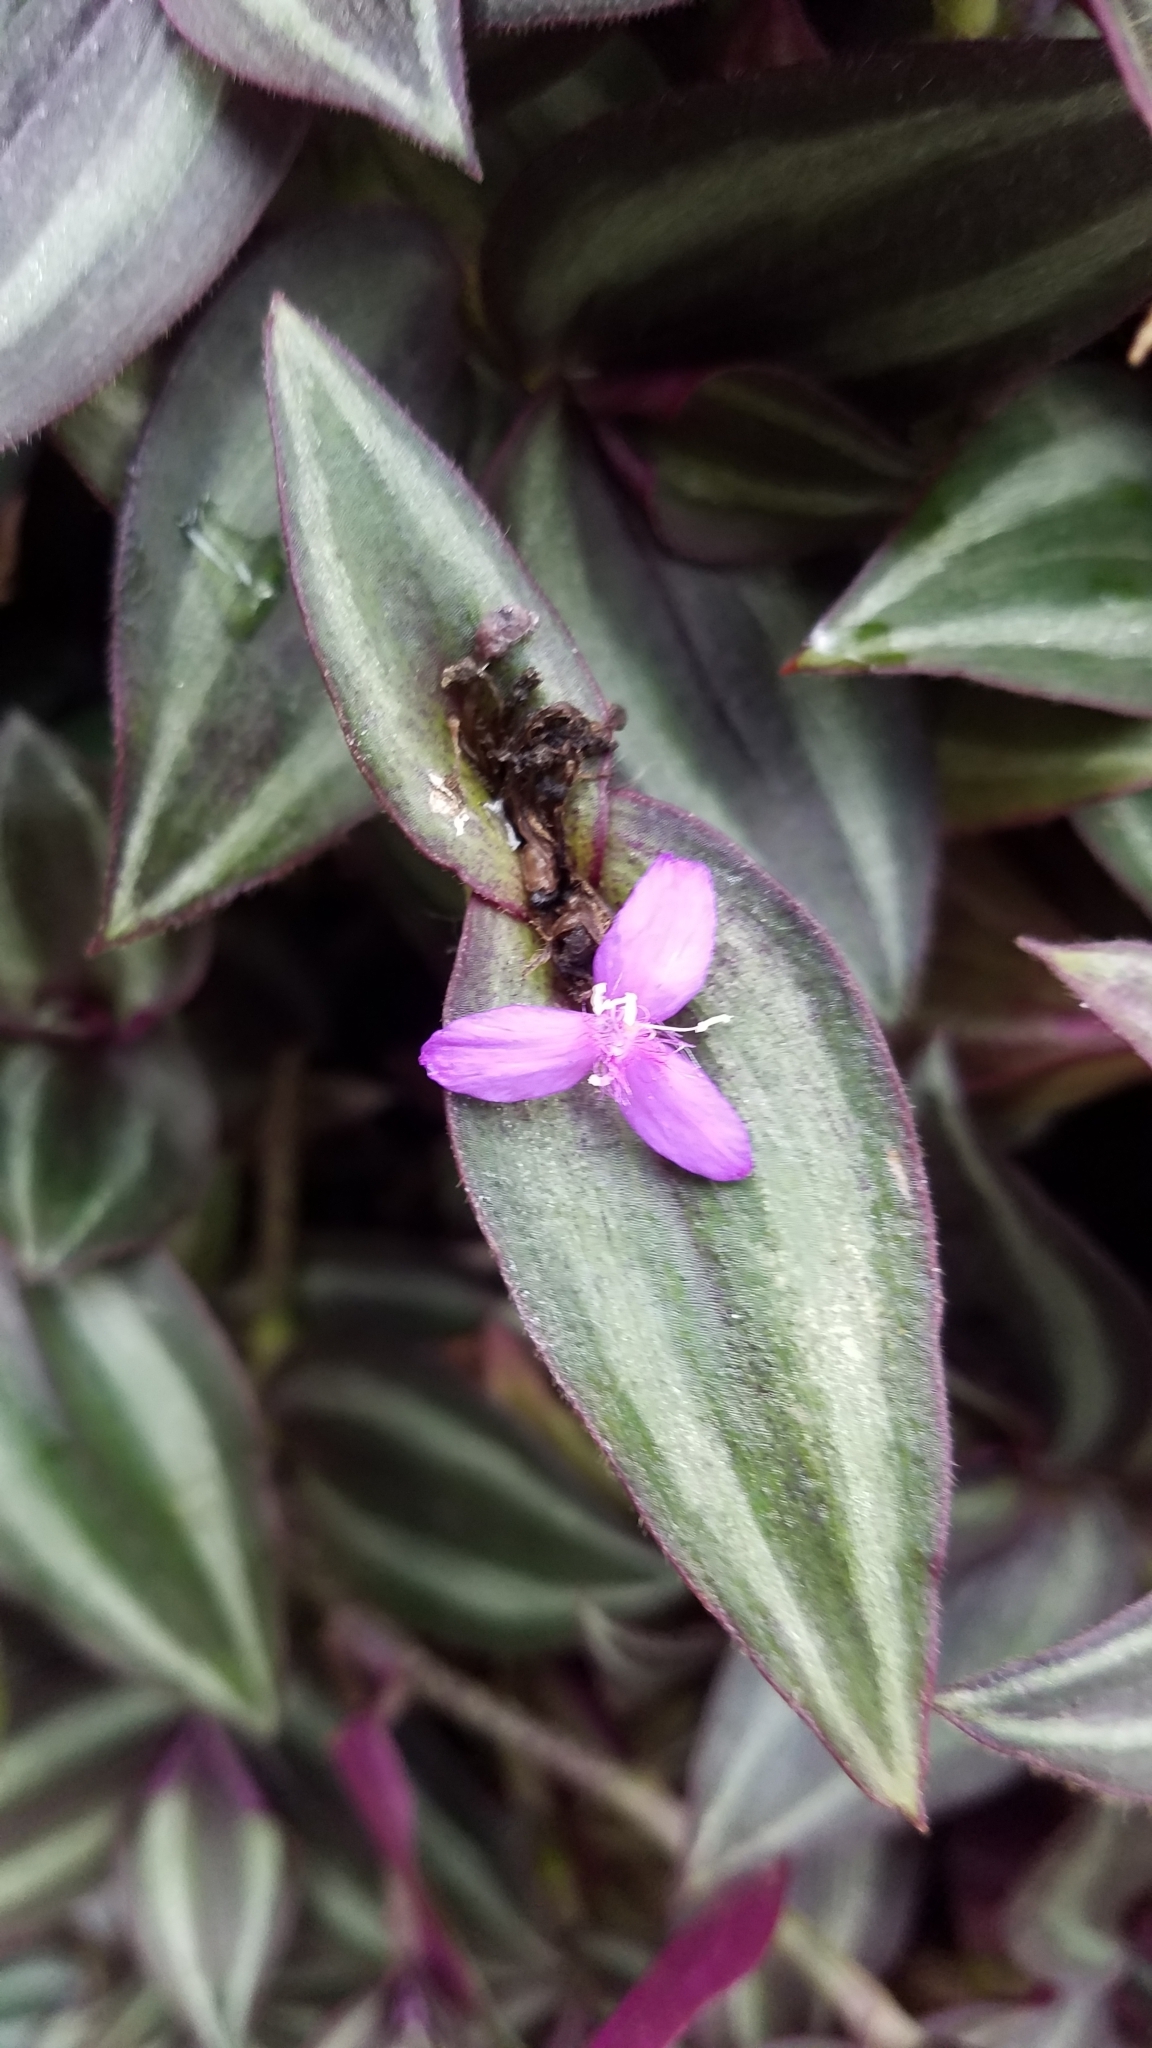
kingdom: Plantae
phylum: Tracheophyta
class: Liliopsida
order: Commelinales
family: Commelinaceae
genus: Tradescantia
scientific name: Tradescantia zebrina
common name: Inchplant
